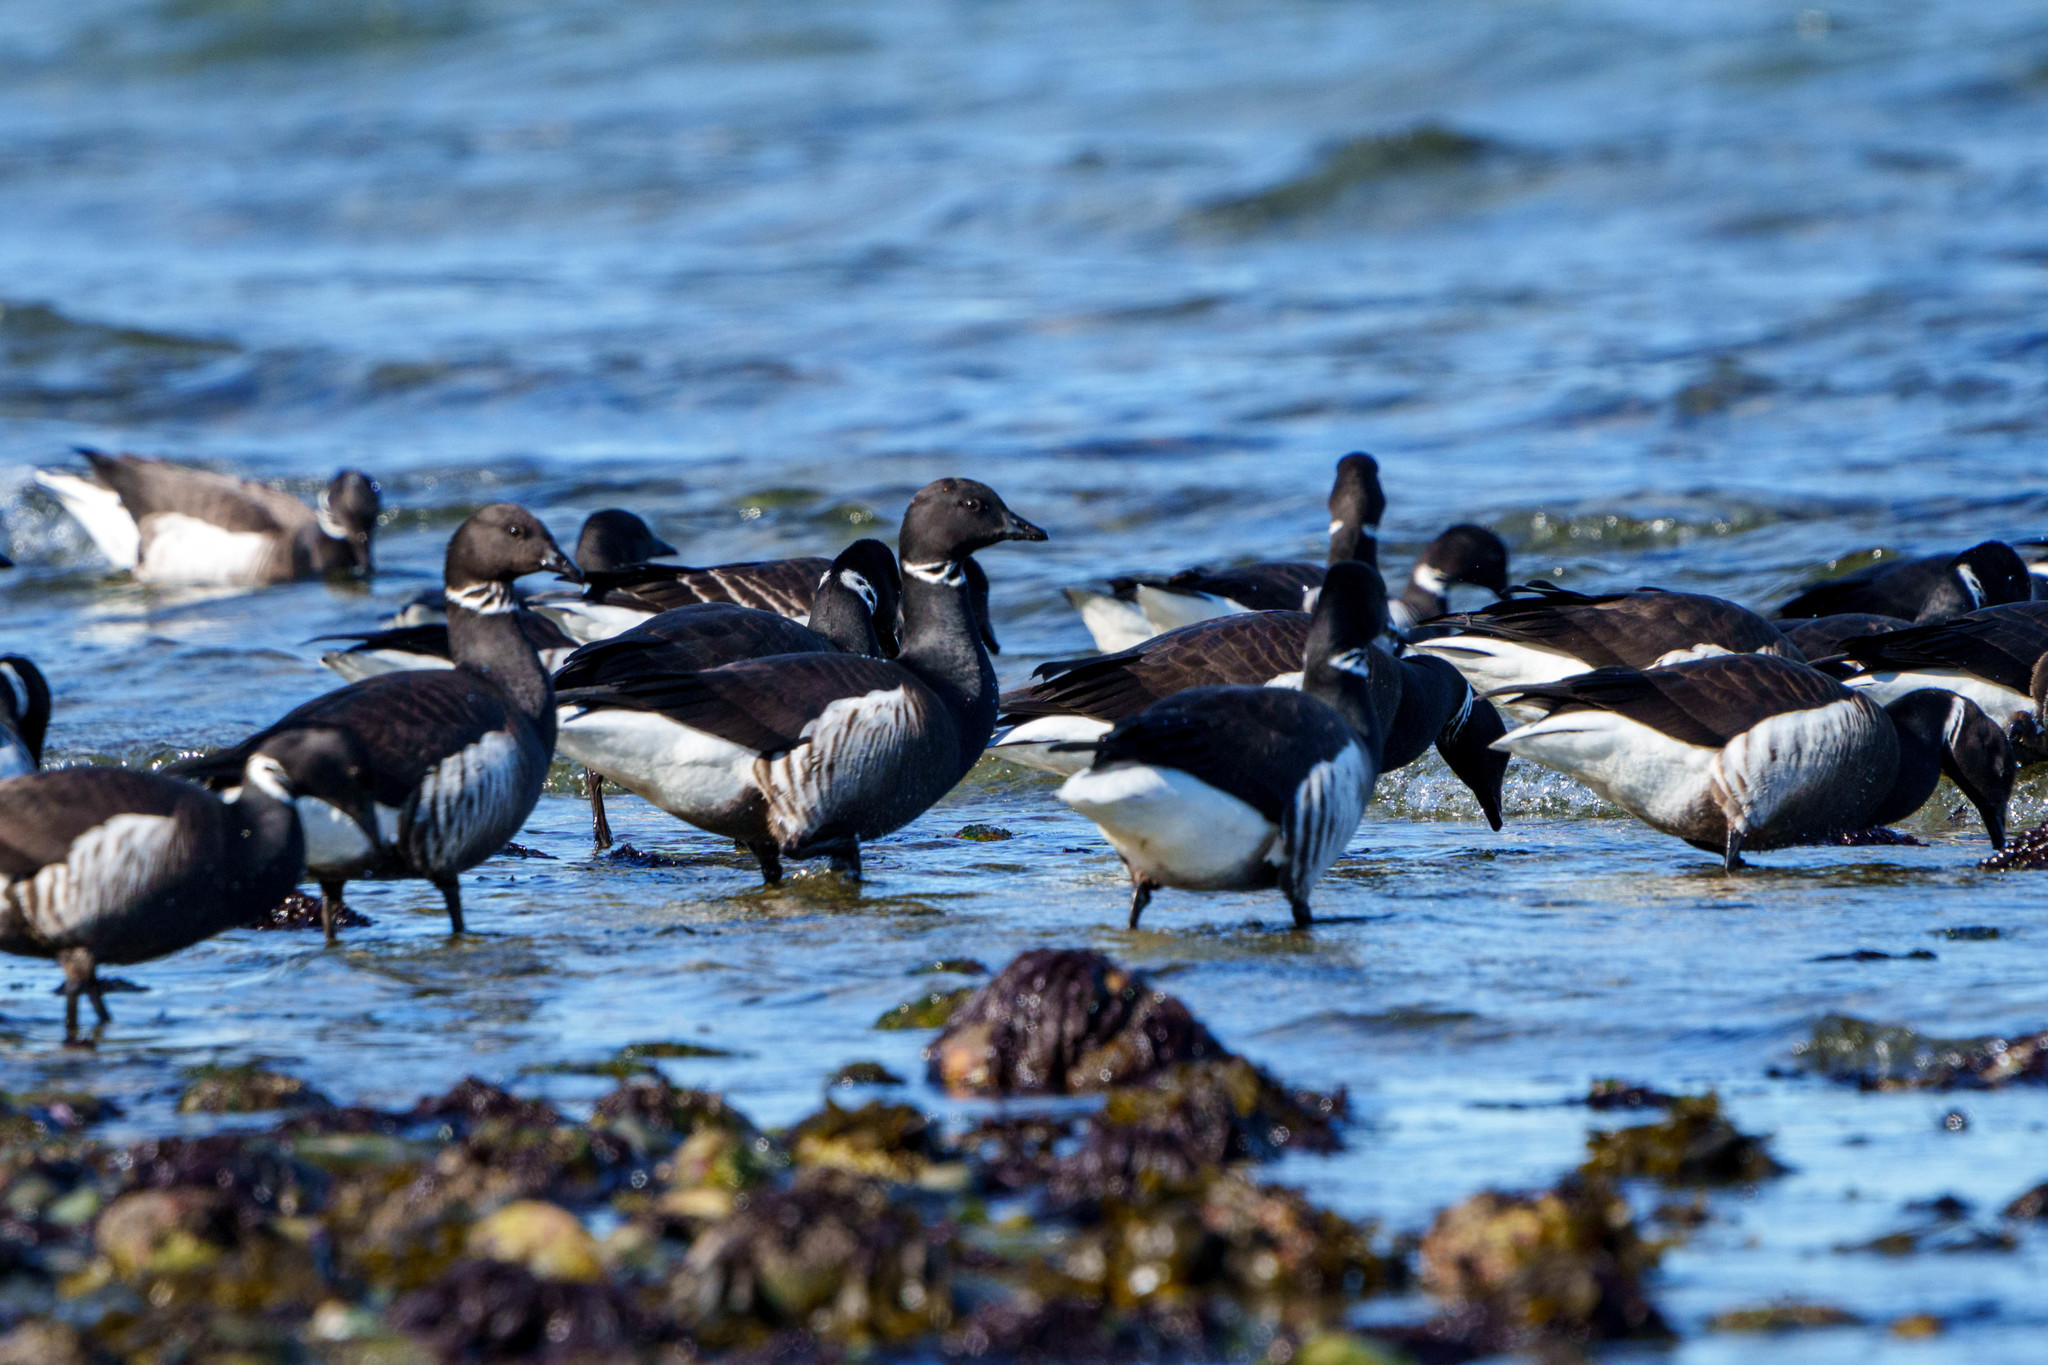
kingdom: Animalia
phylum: Chordata
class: Aves
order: Anseriformes
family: Anatidae
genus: Branta
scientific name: Branta bernicla
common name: Brant goose
